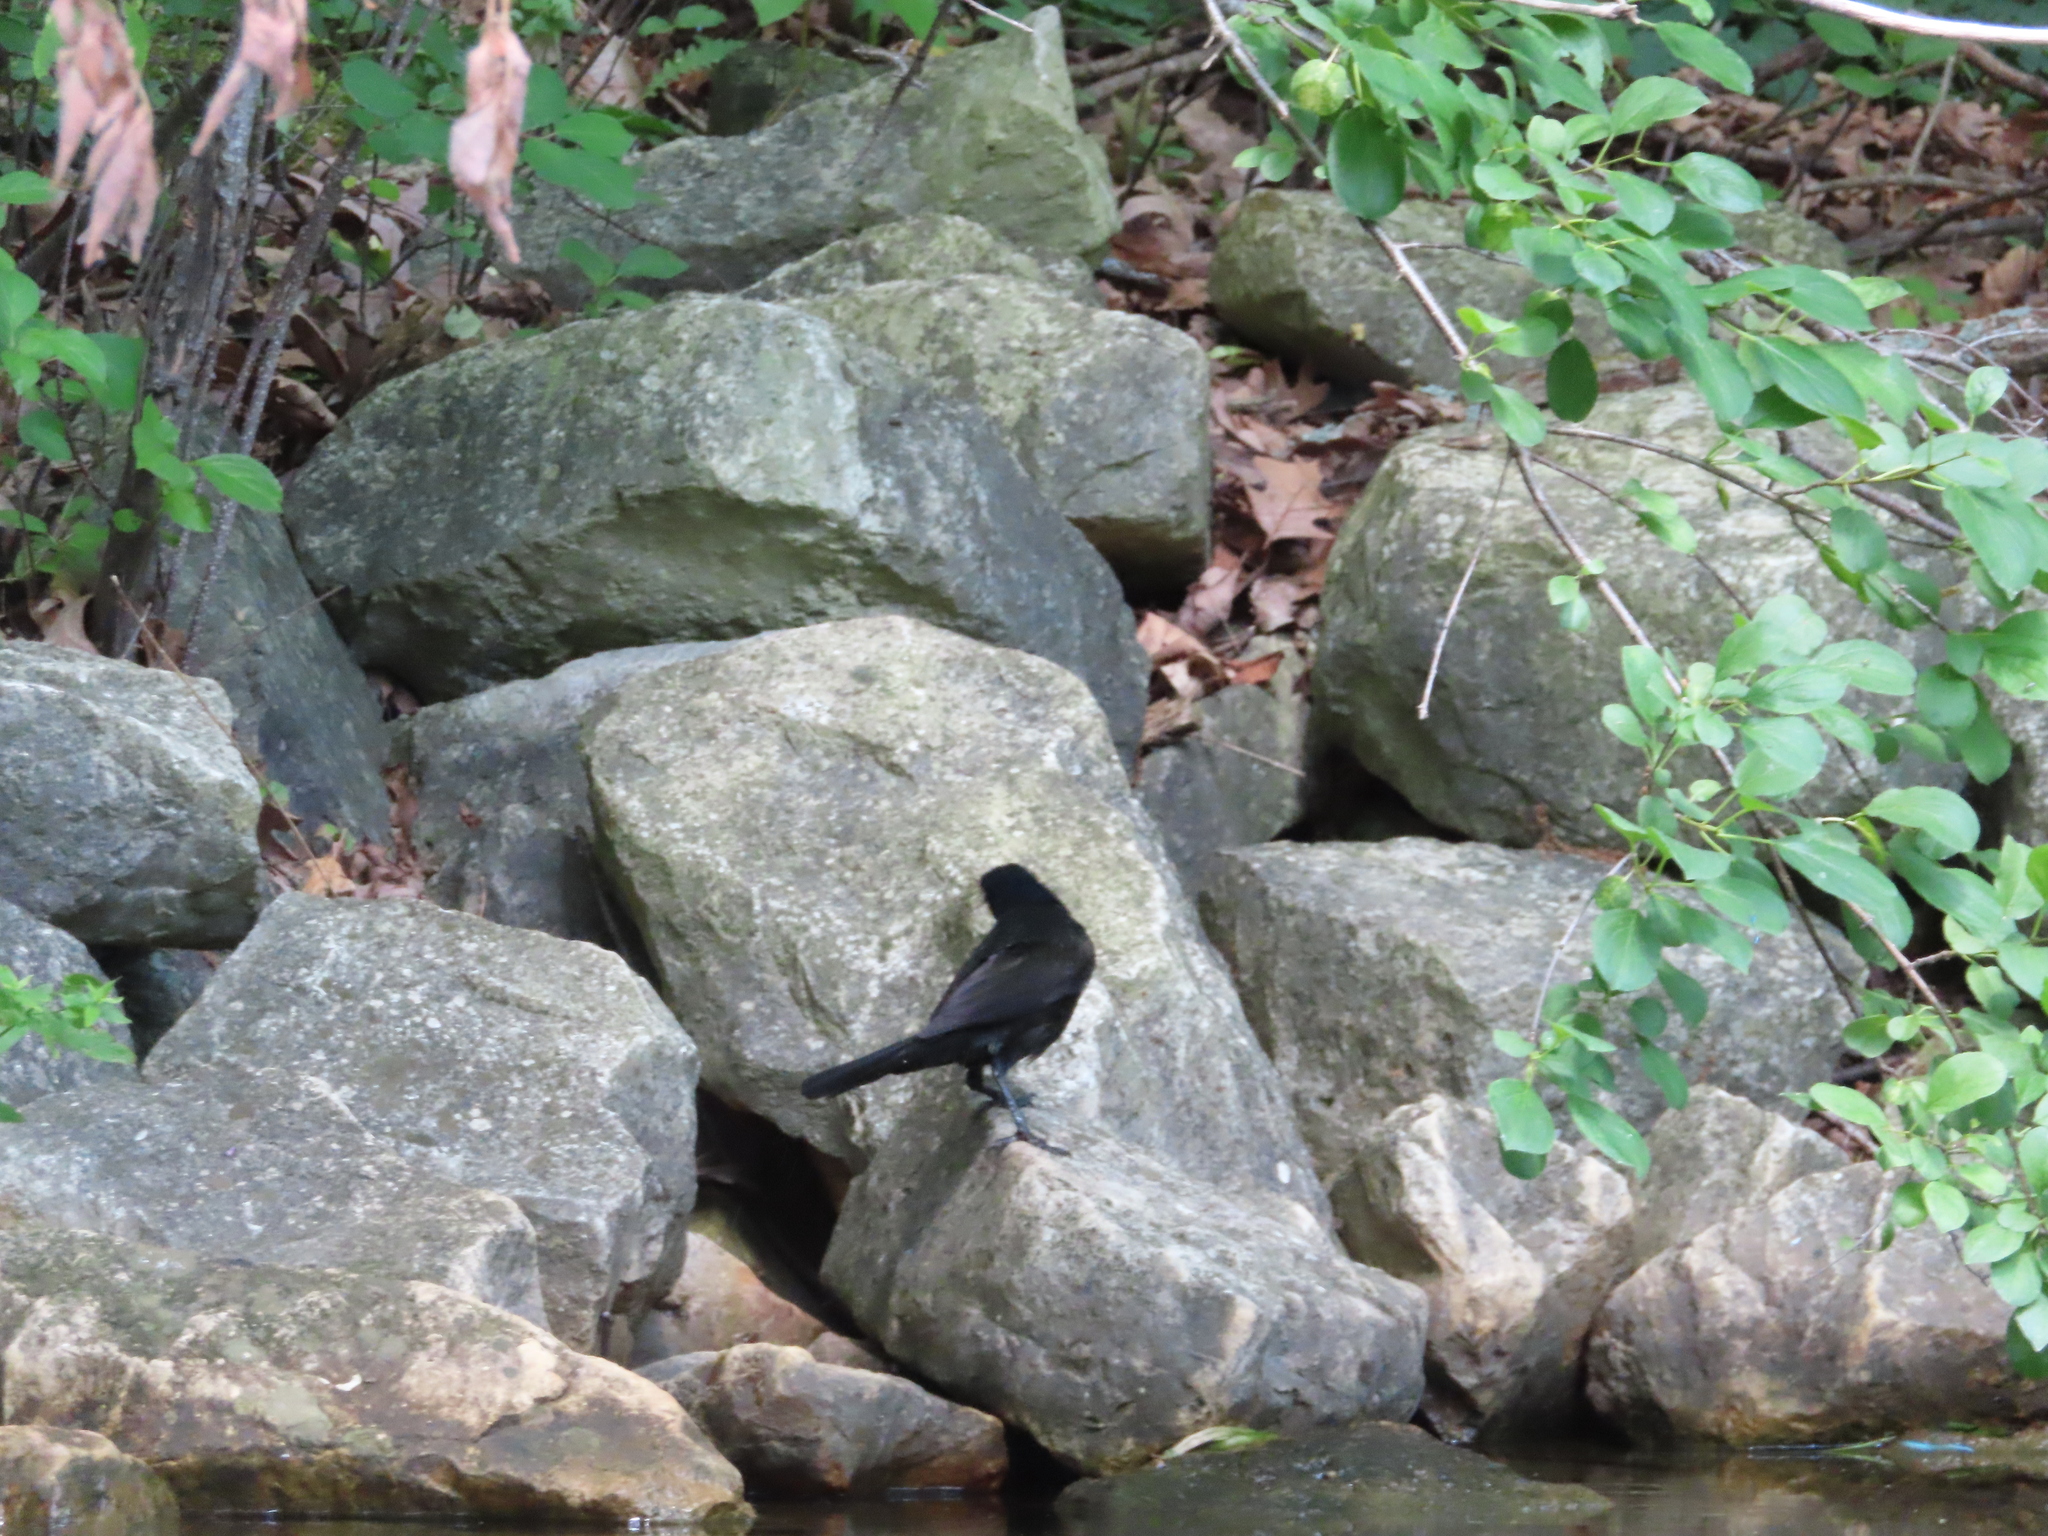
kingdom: Animalia
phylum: Chordata
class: Aves
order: Passeriformes
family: Icteridae
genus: Quiscalus
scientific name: Quiscalus quiscula
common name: Common grackle
